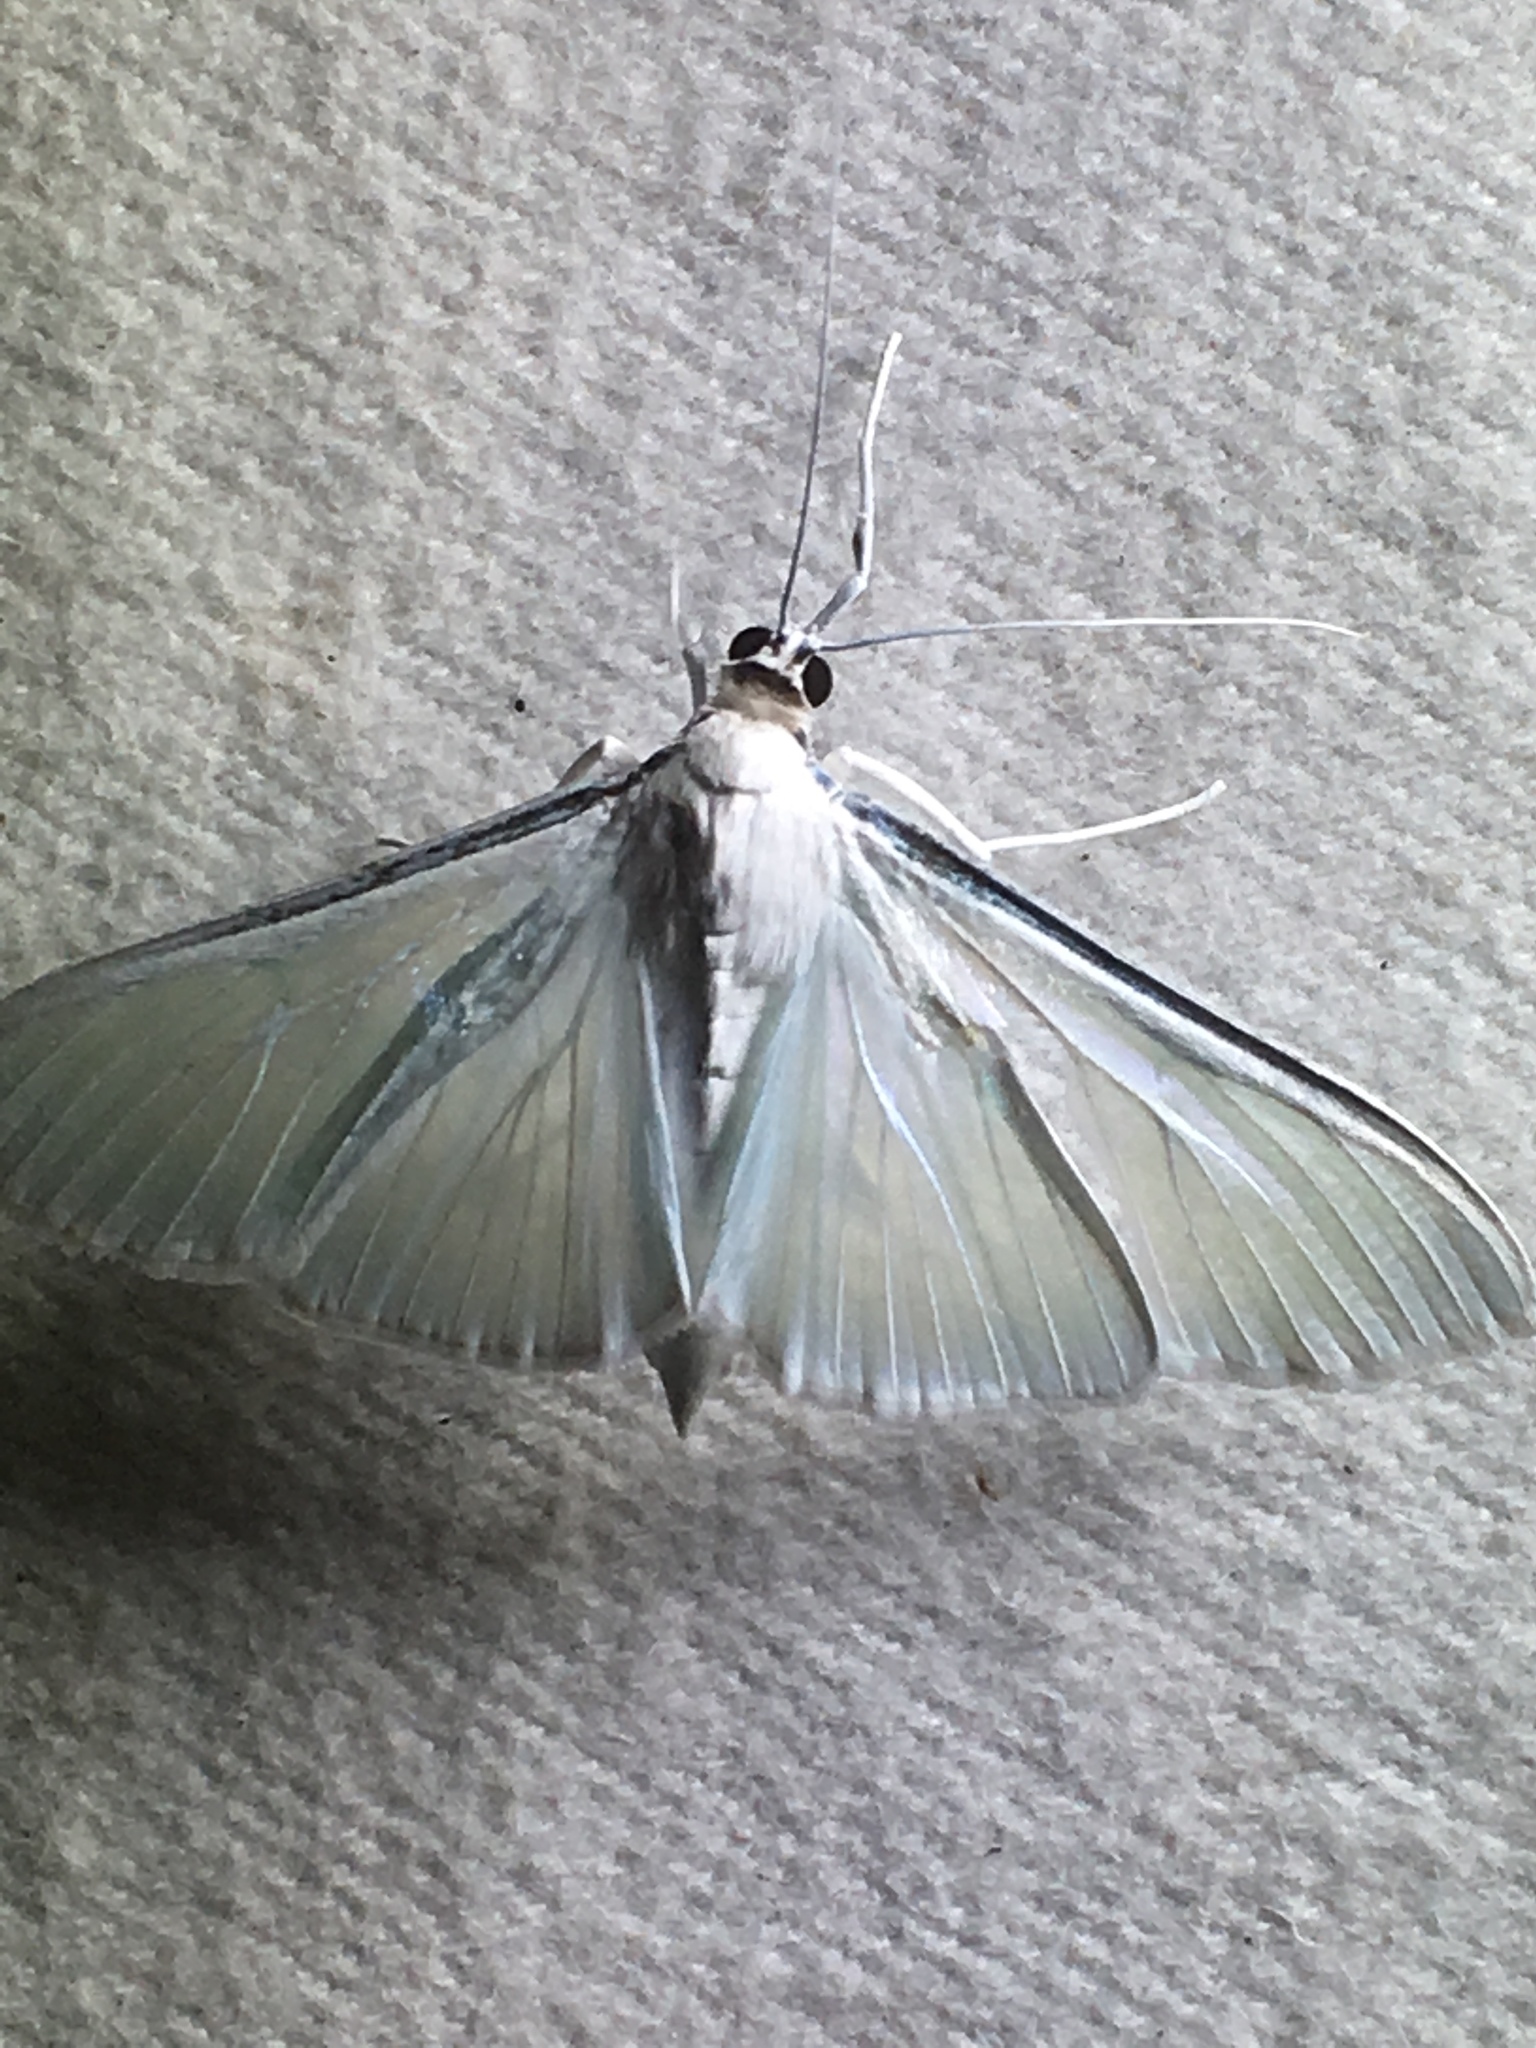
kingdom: Animalia
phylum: Arthropoda
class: Insecta
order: Lepidoptera
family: Crambidae
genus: Palpita
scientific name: Palpita flegia
